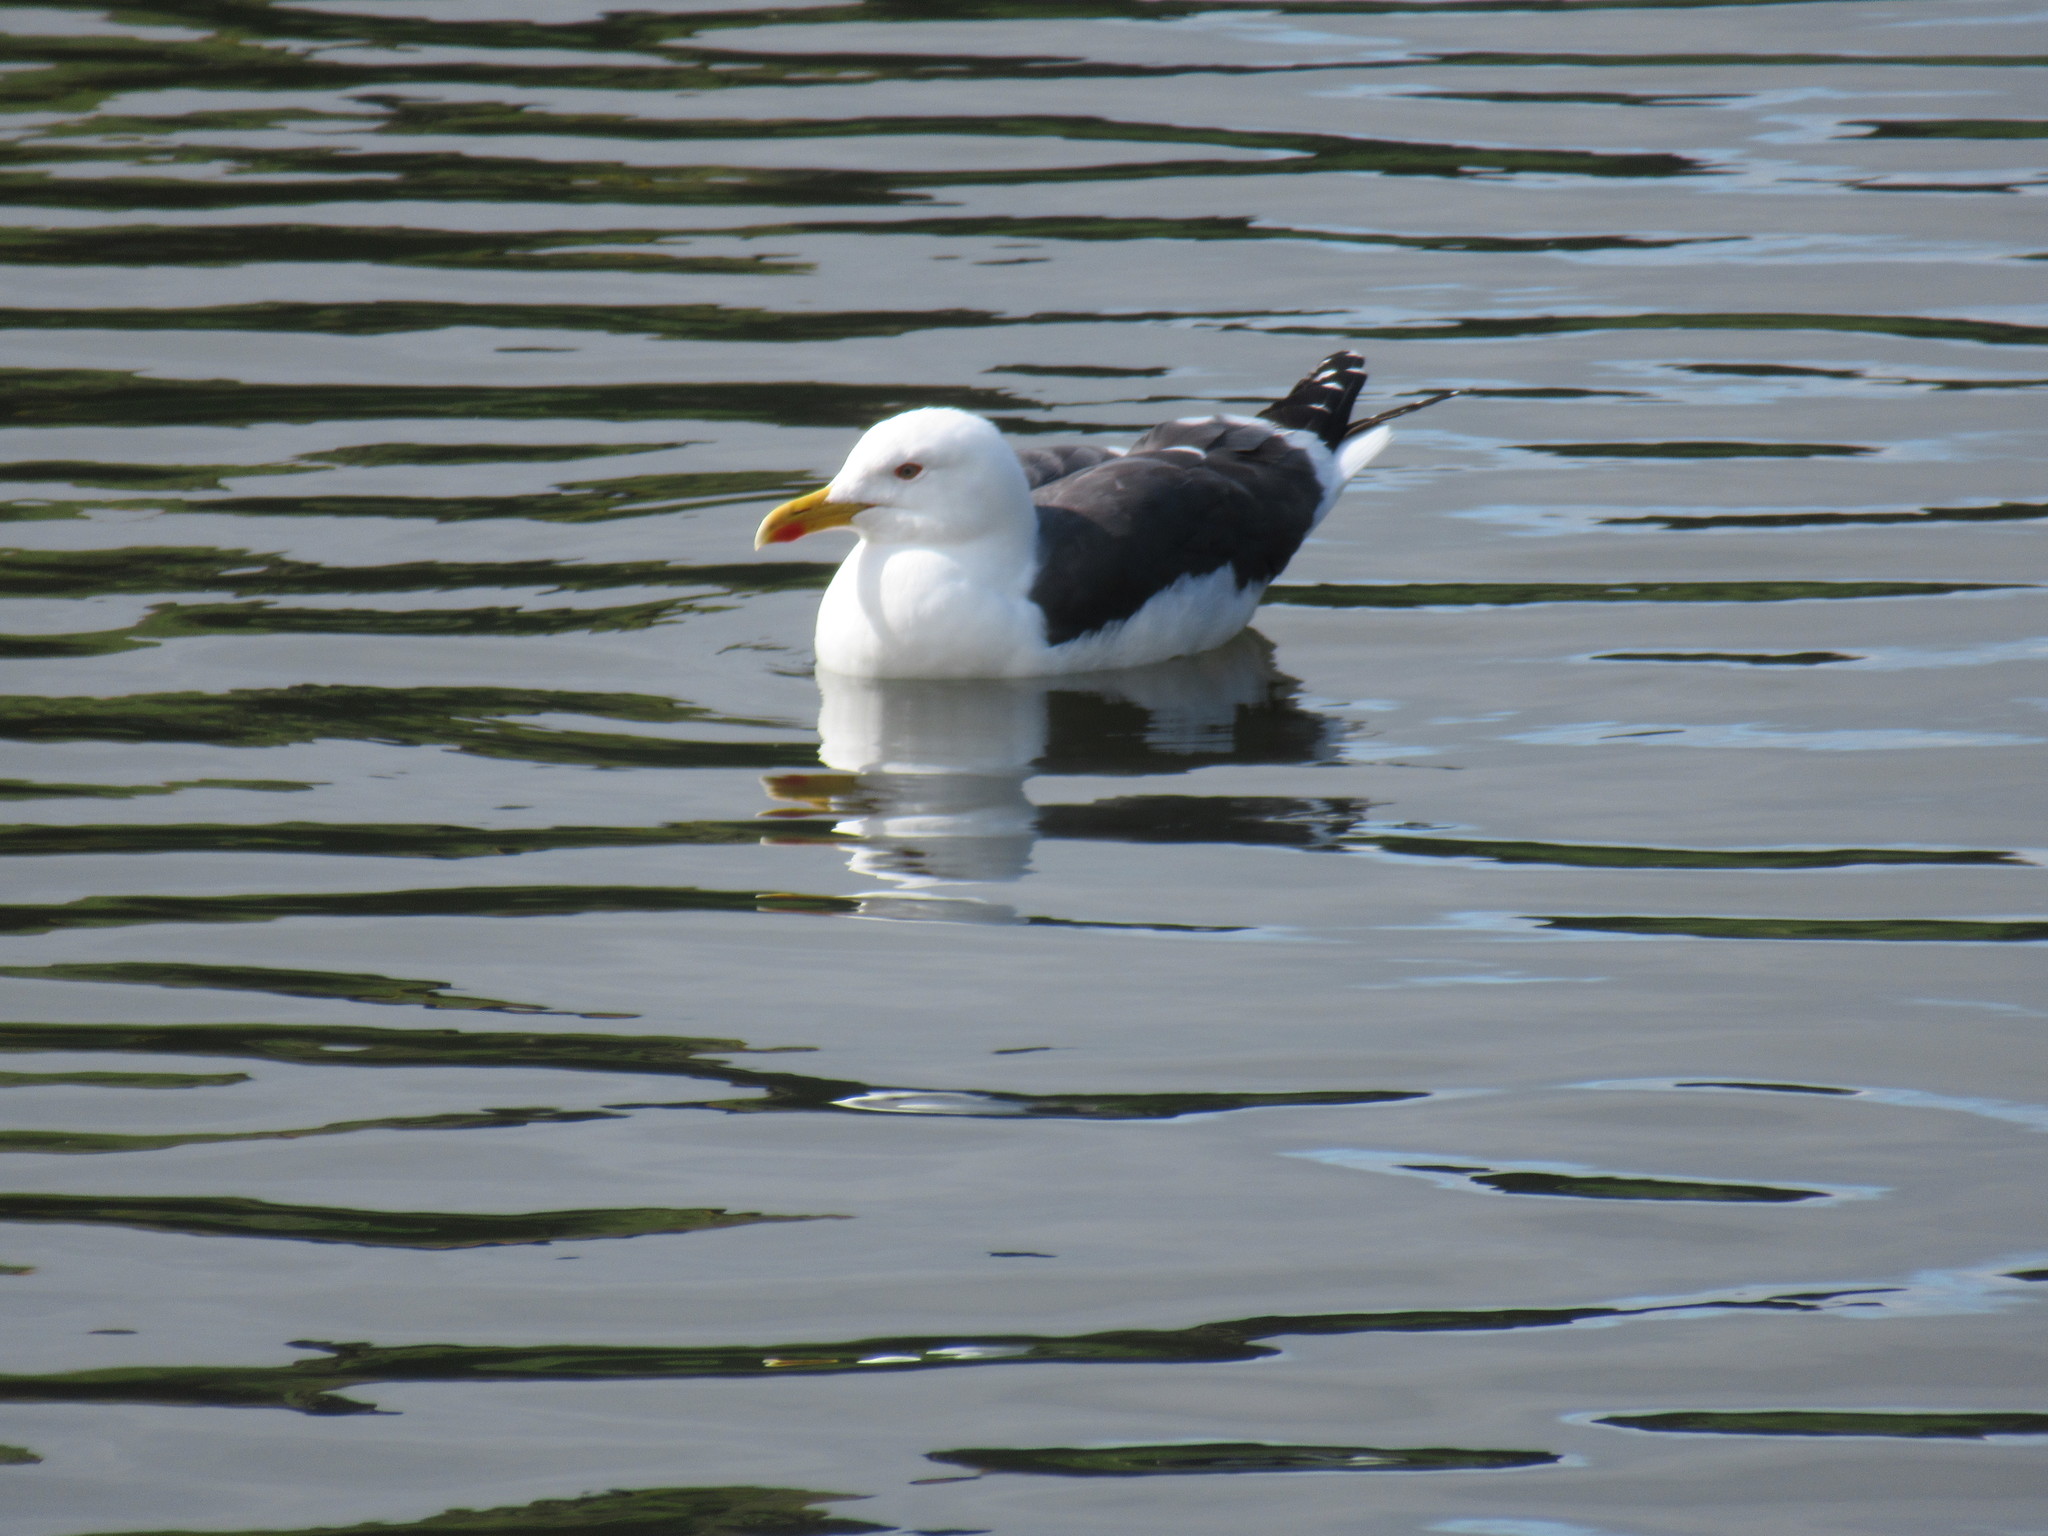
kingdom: Animalia
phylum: Chordata
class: Aves
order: Charadriiformes
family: Laridae
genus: Larus
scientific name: Larus fuscus
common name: Lesser black-backed gull
